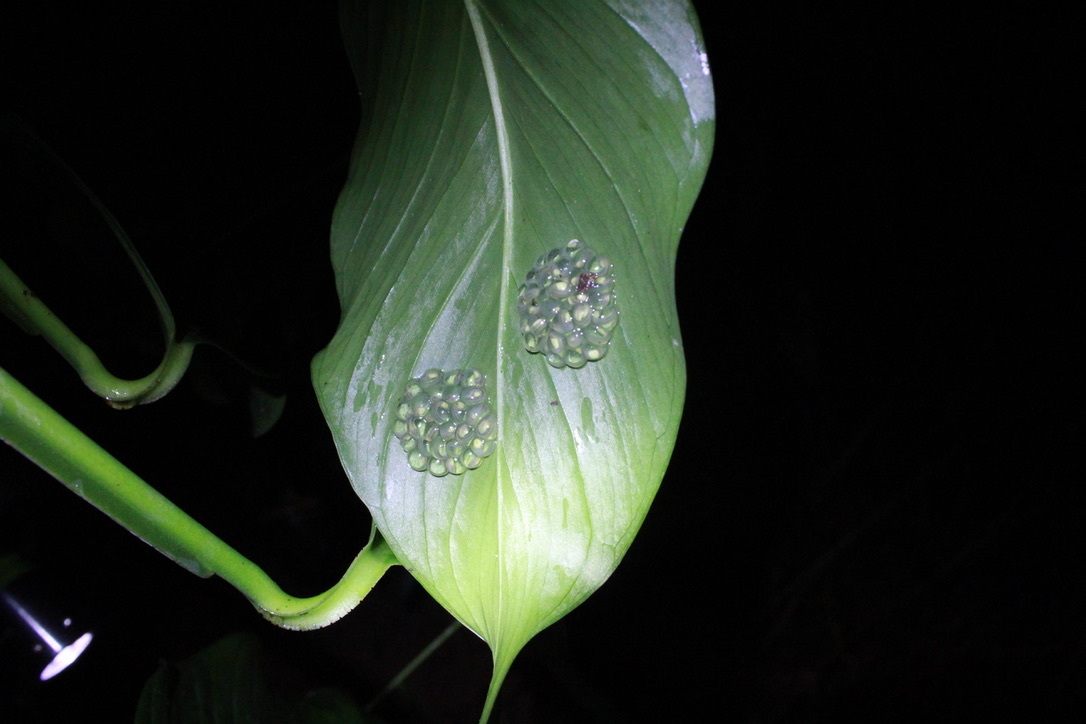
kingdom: Animalia
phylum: Chordata
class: Amphibia
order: Anura
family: Centrolenidae
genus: Hyalinobatrachium
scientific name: Hyalinobatrachium orientale
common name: Eastern glass frog
